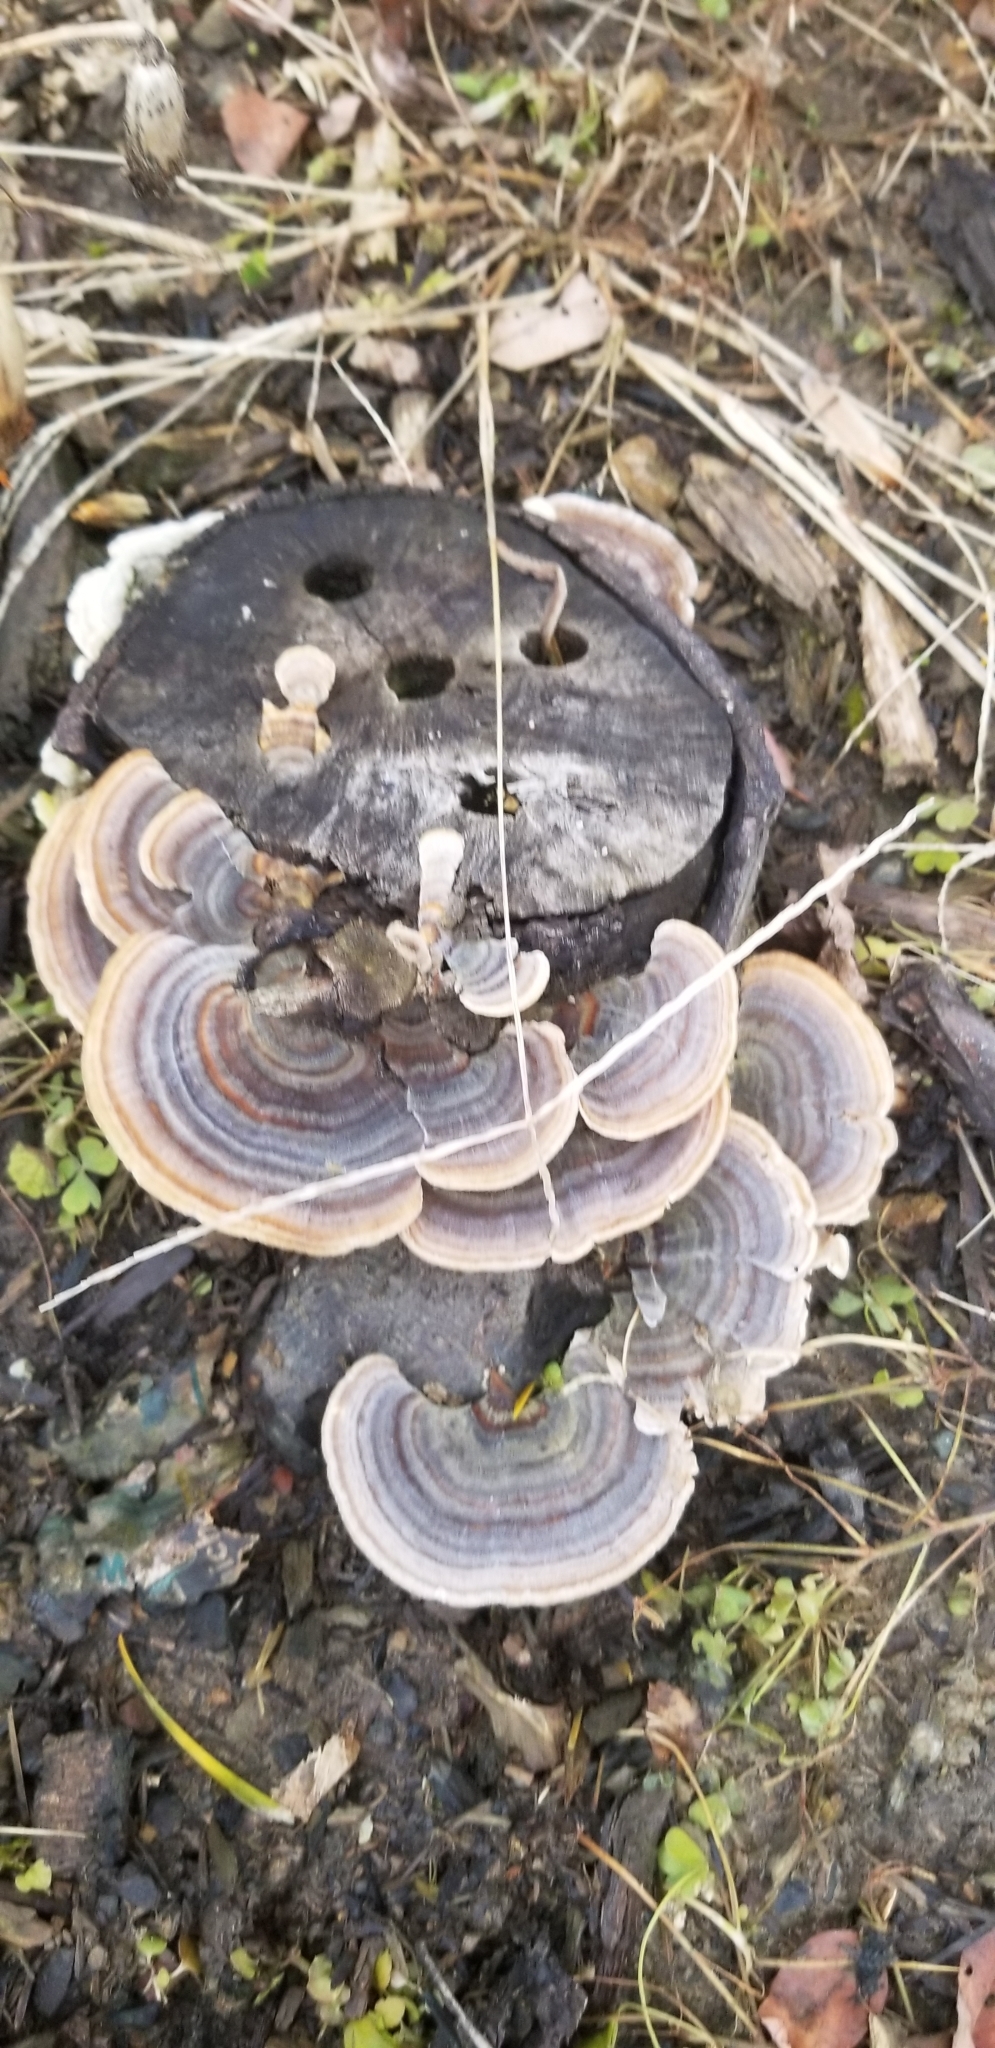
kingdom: Fungi
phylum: Basidiomycota
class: Agaricomycetes
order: Polyporales
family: Polyporaceae
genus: Trametes
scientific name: Trametes versicolor
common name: Turkeytail
